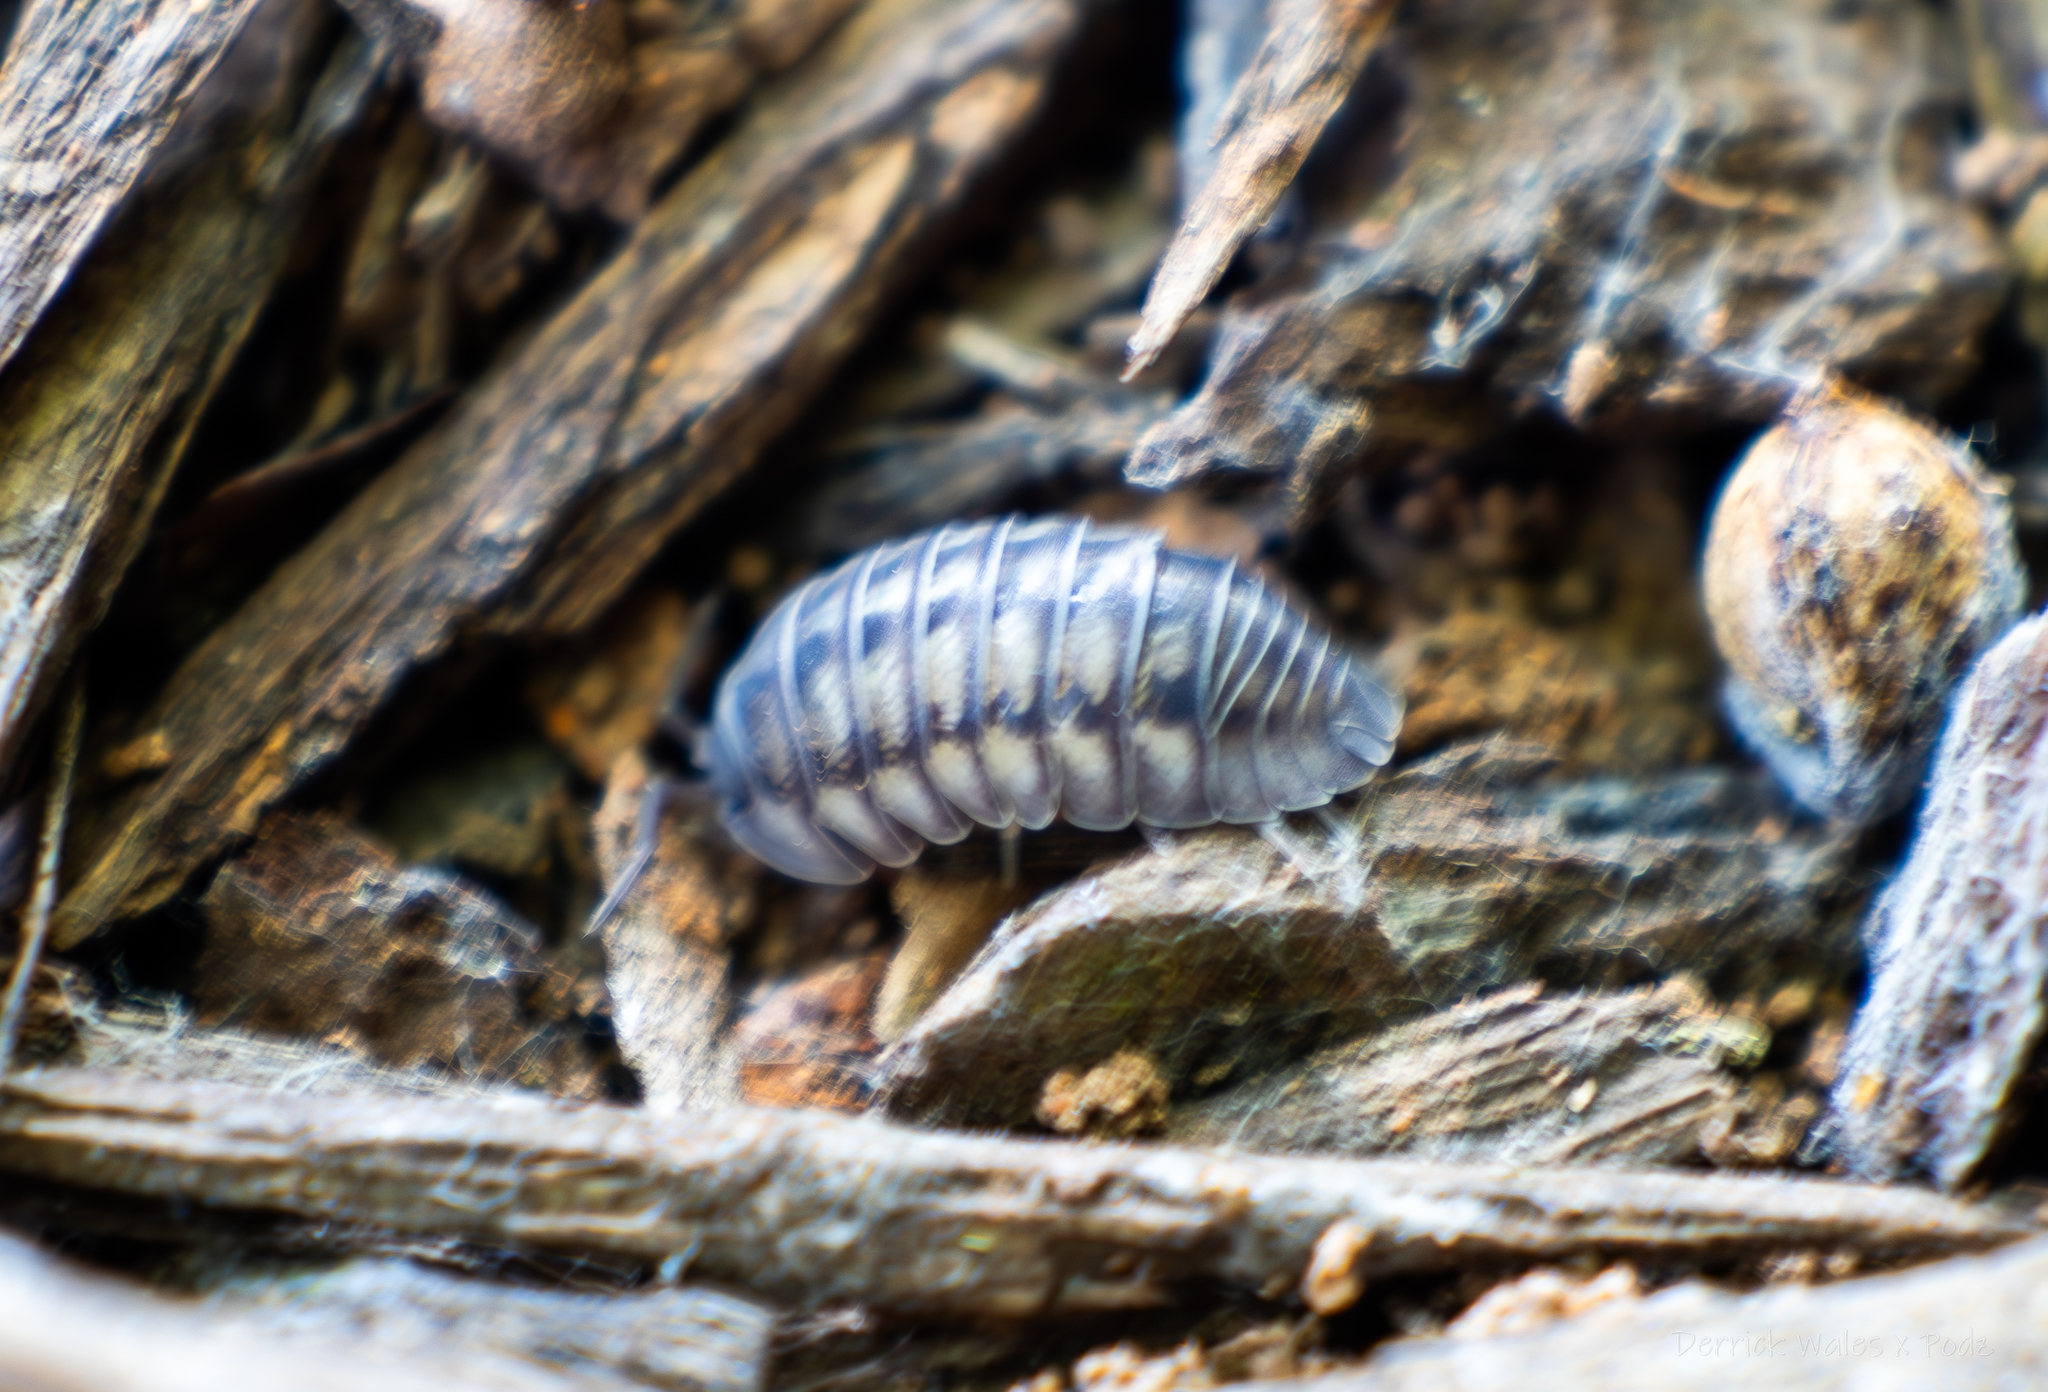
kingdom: Animalia
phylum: Arthropoda
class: Malacostraca
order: Isopoda
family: Armadillidiidae
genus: Armadillidium
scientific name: Armadillidium nasatum
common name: Isopod
